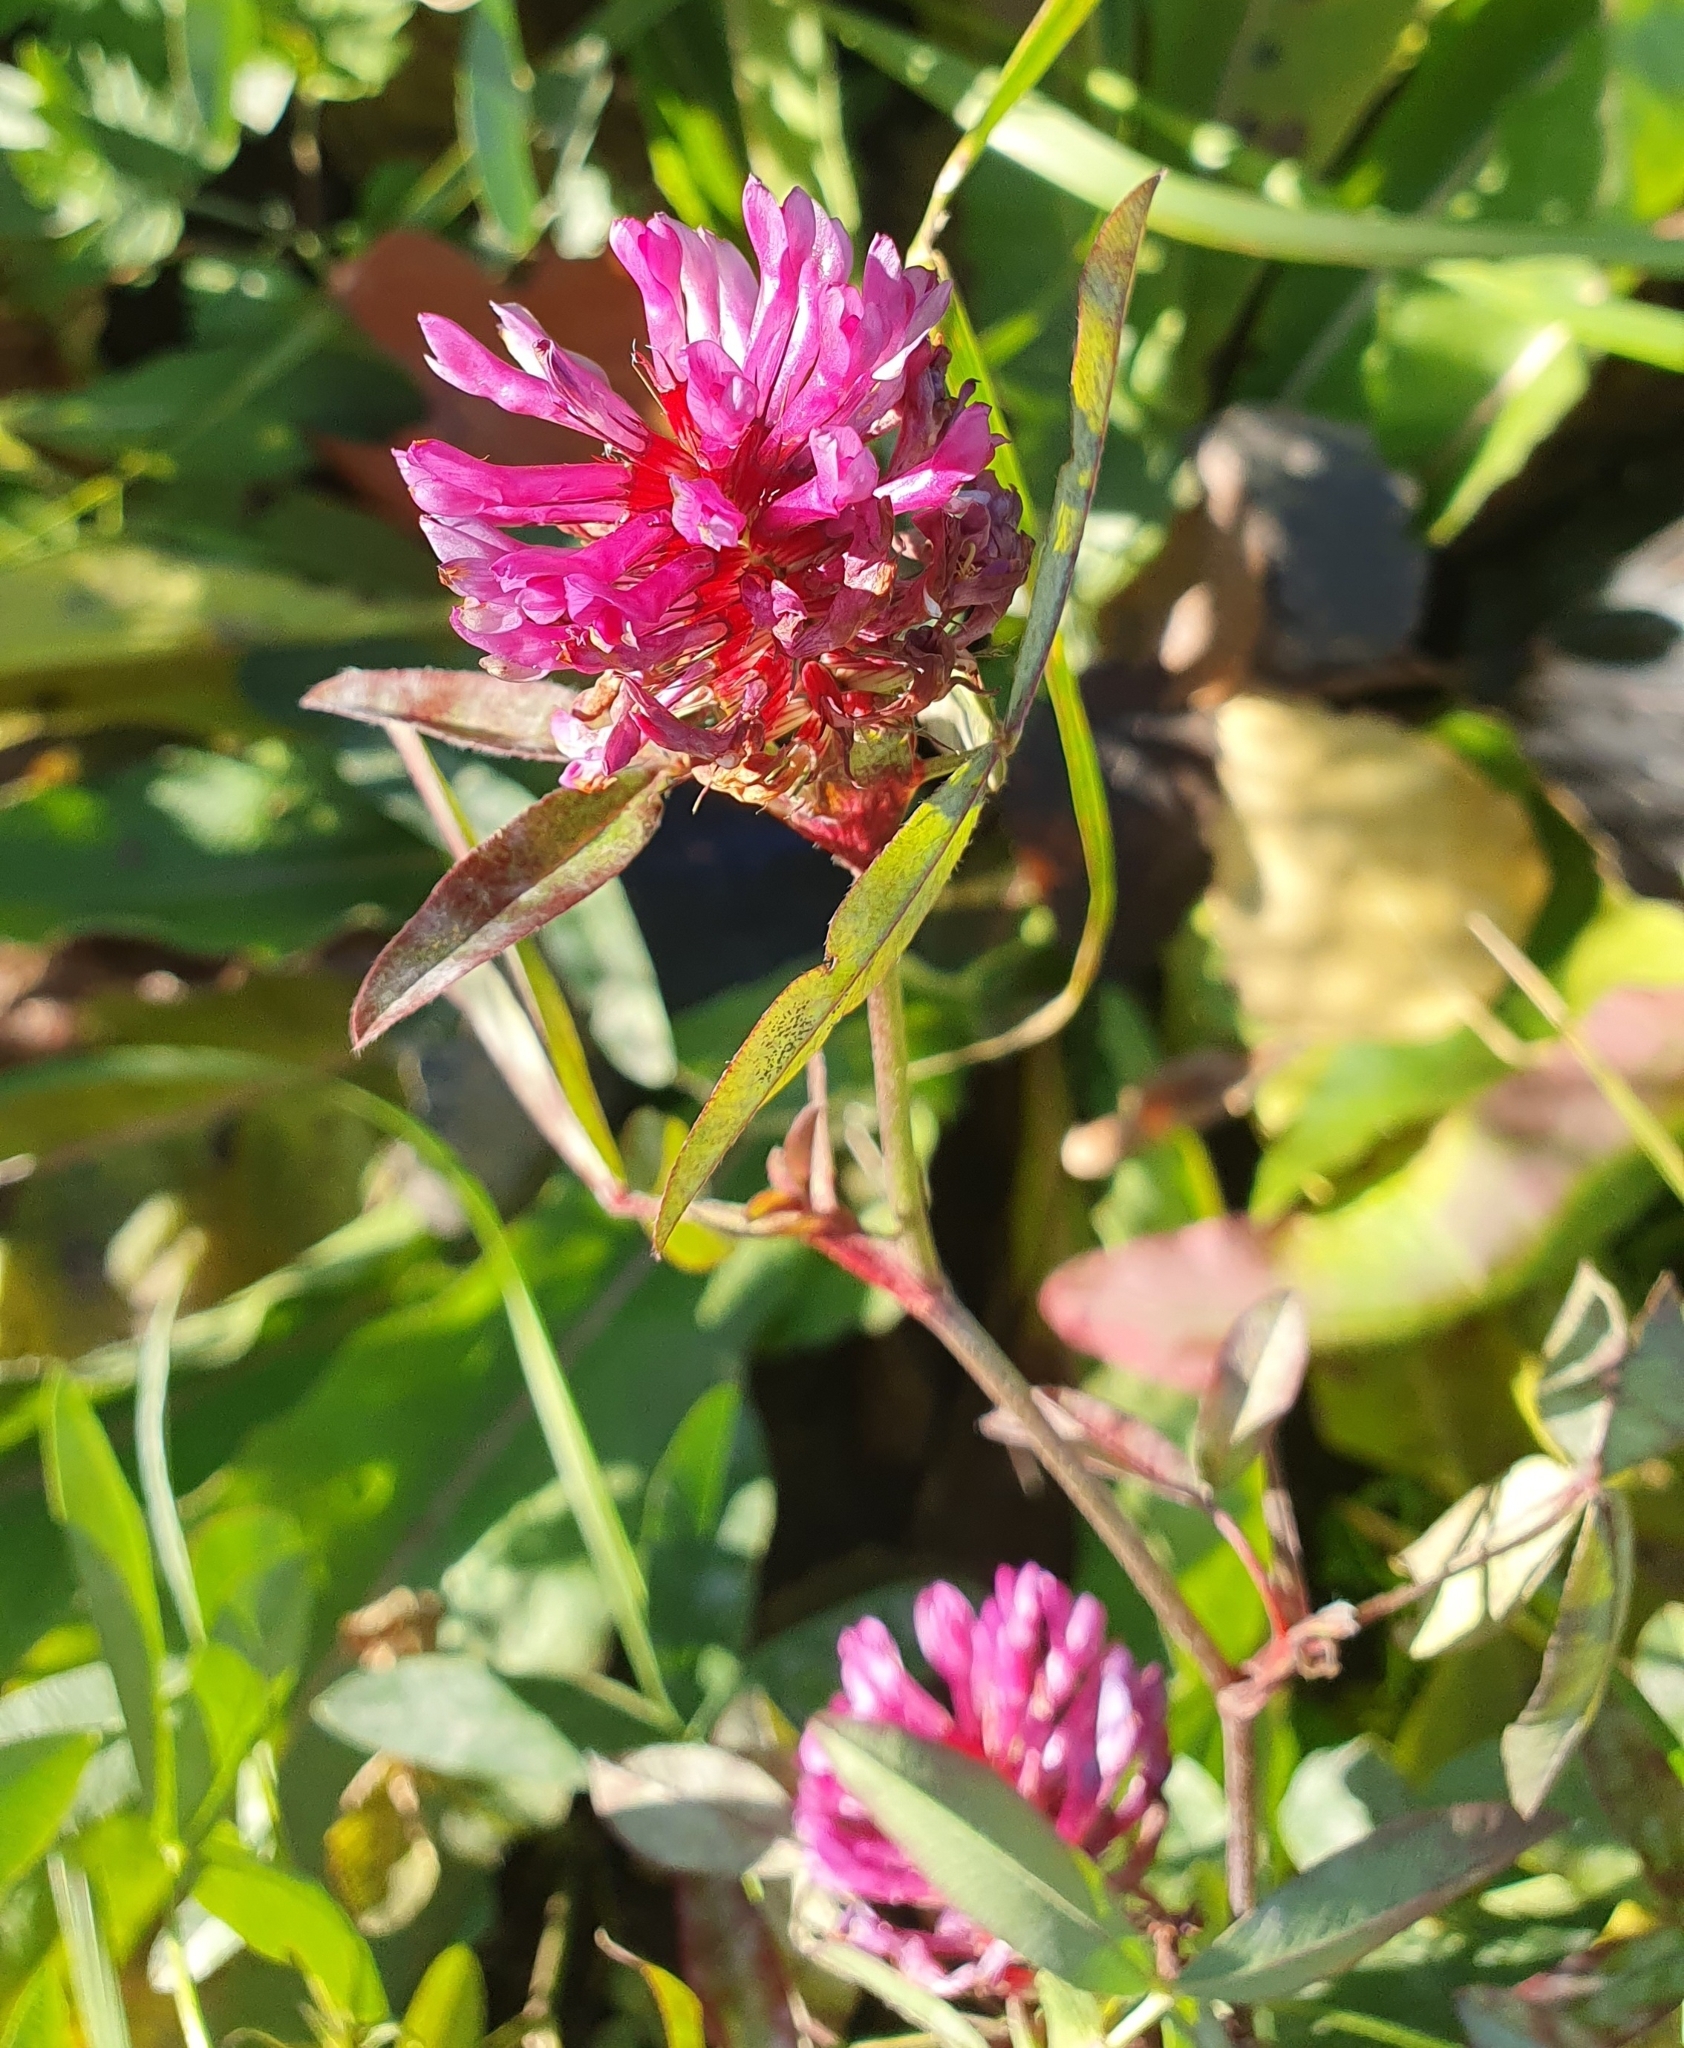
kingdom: Plantae
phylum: Tracheophyta
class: Magnoliopsida
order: Fabales
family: Fabaceae
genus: Trifolium
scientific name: Trifolium medium
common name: Zigzag clover
